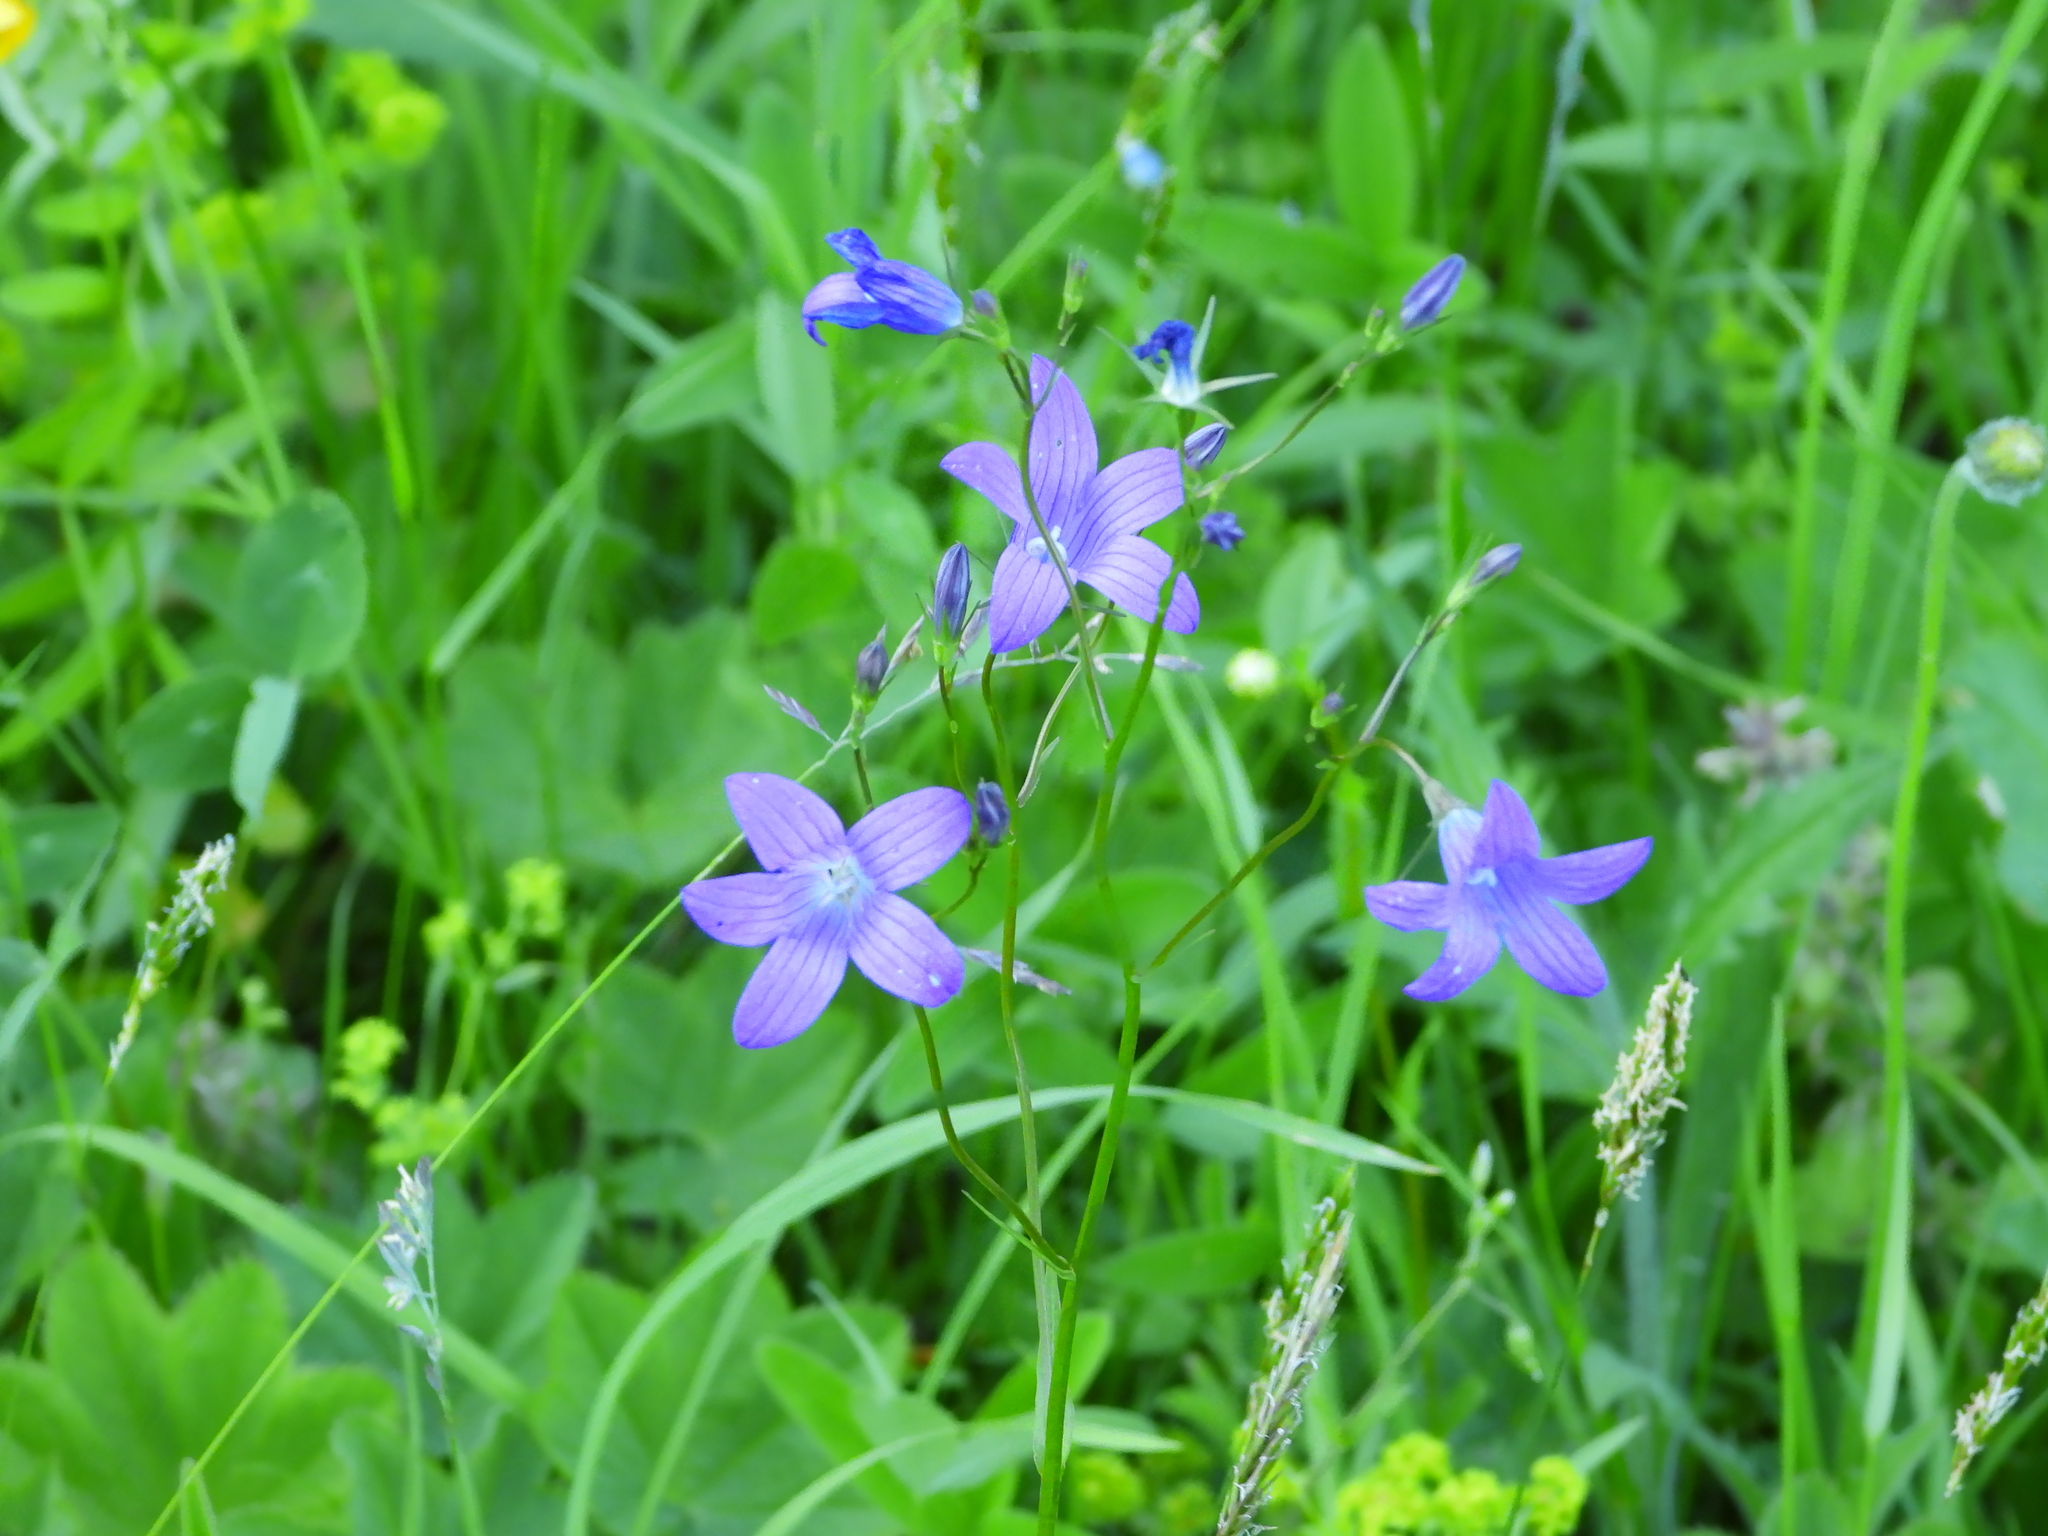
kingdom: Plantae
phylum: Tracheophyta
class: Magnoliopsida
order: Asterales
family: Campanulaceae
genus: Campanula
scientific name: Campanula patula
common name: Spreading bellflower
